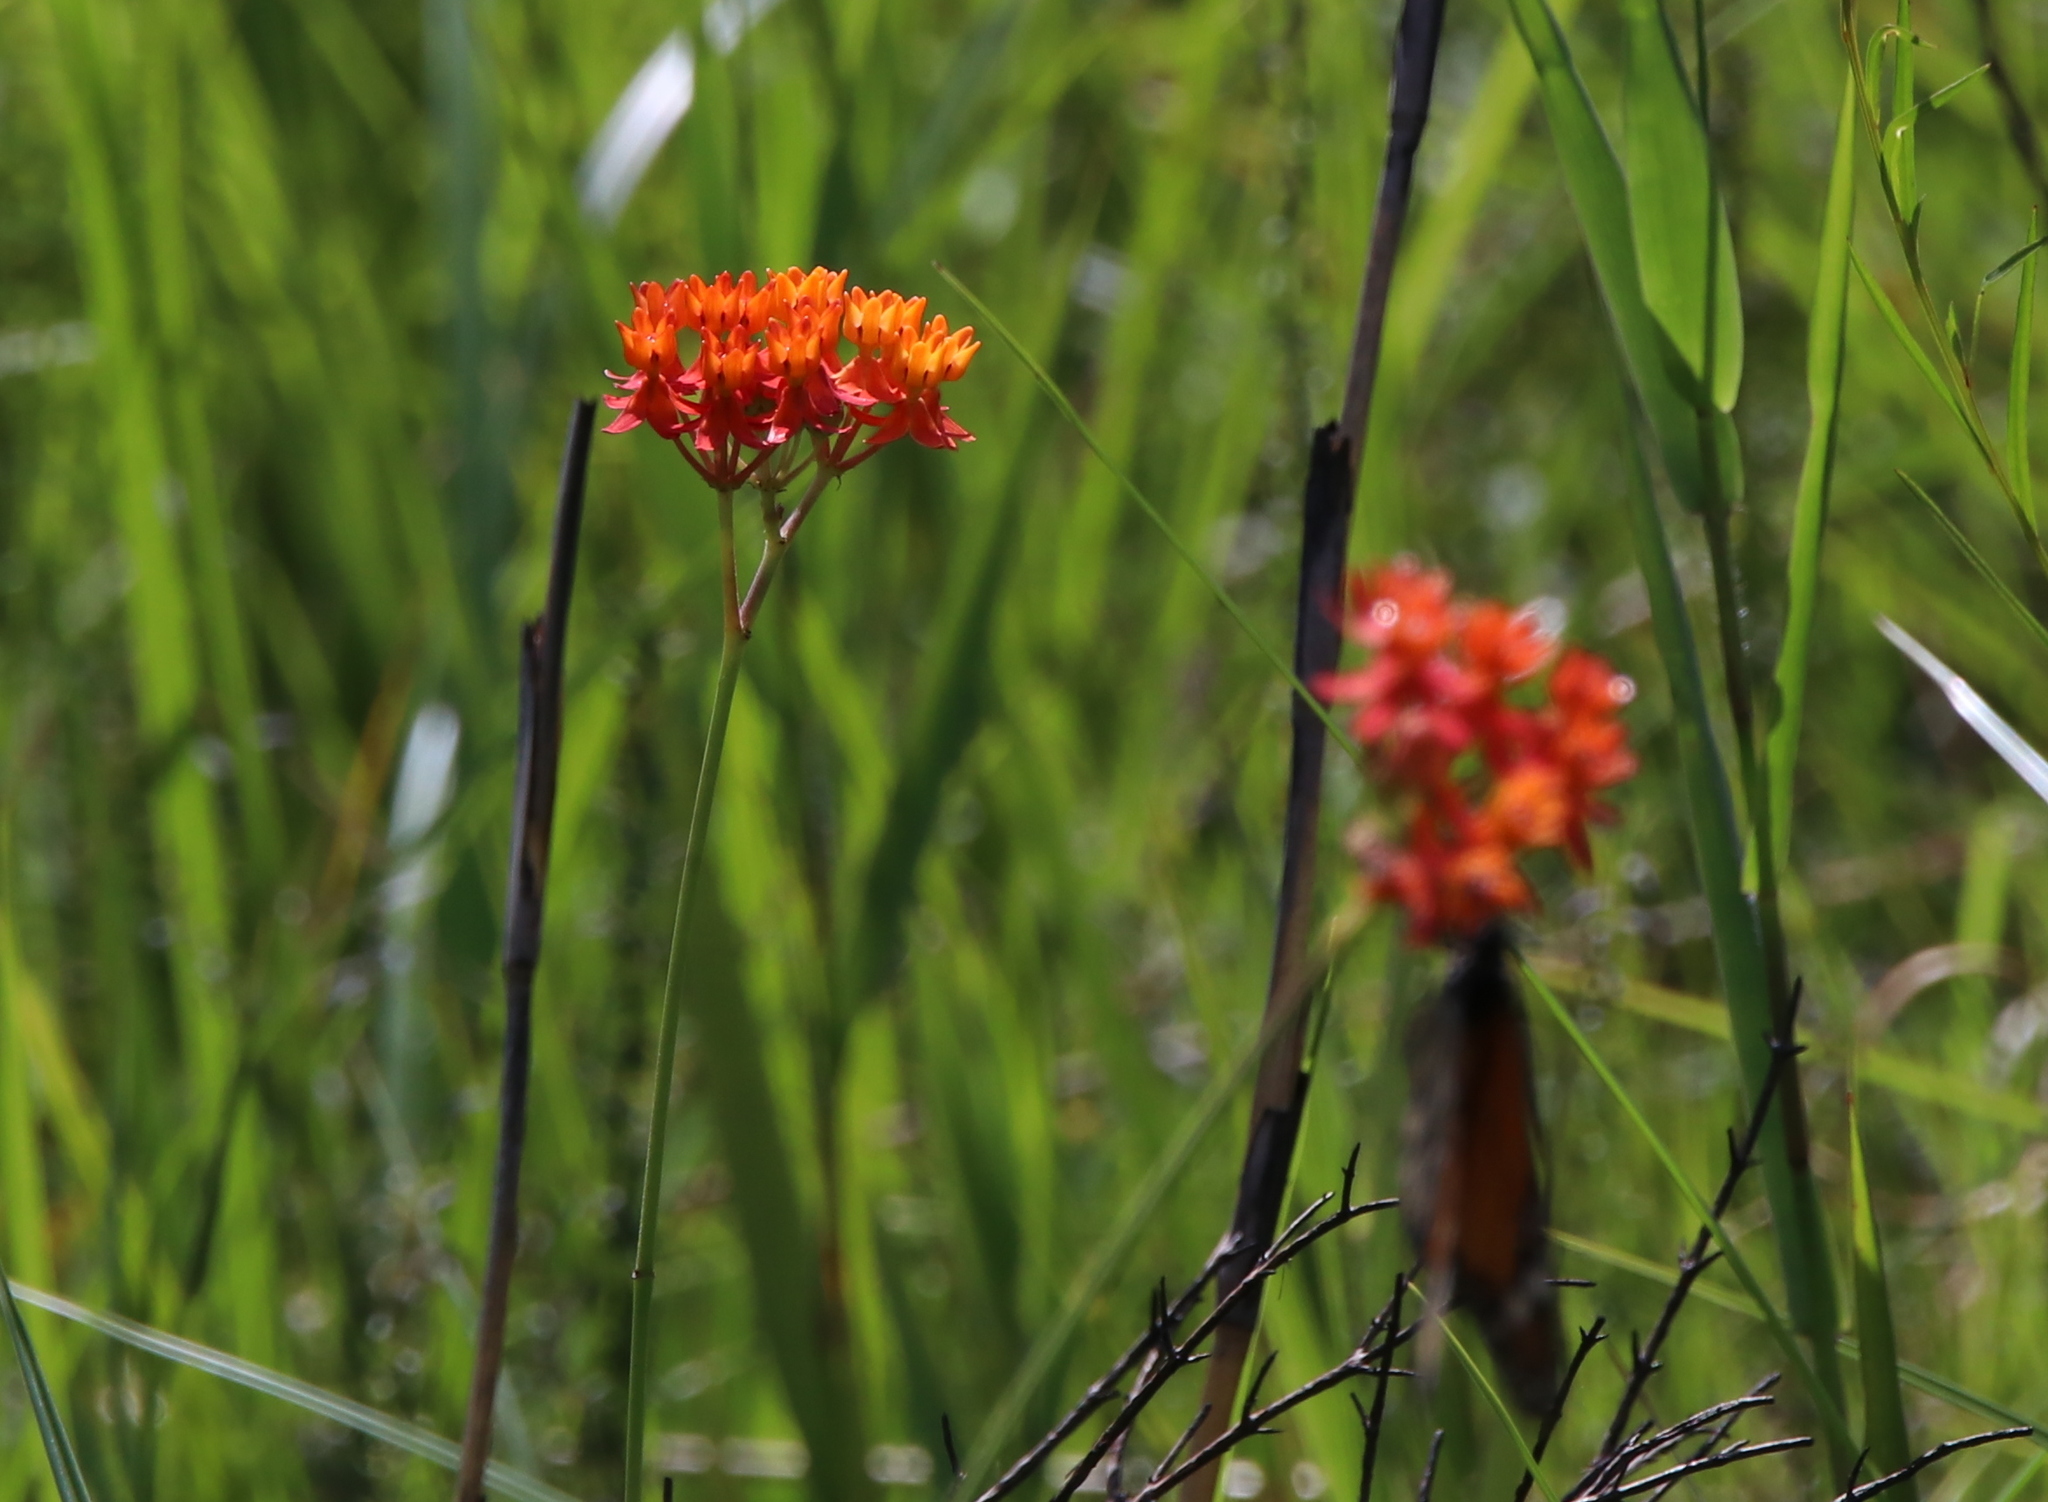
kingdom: Plantae
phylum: Tracheophyta
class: Magnoliopsida
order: Gentianales
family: Apocynaceae
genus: Asclepias
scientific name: Asclepias lanceolata
